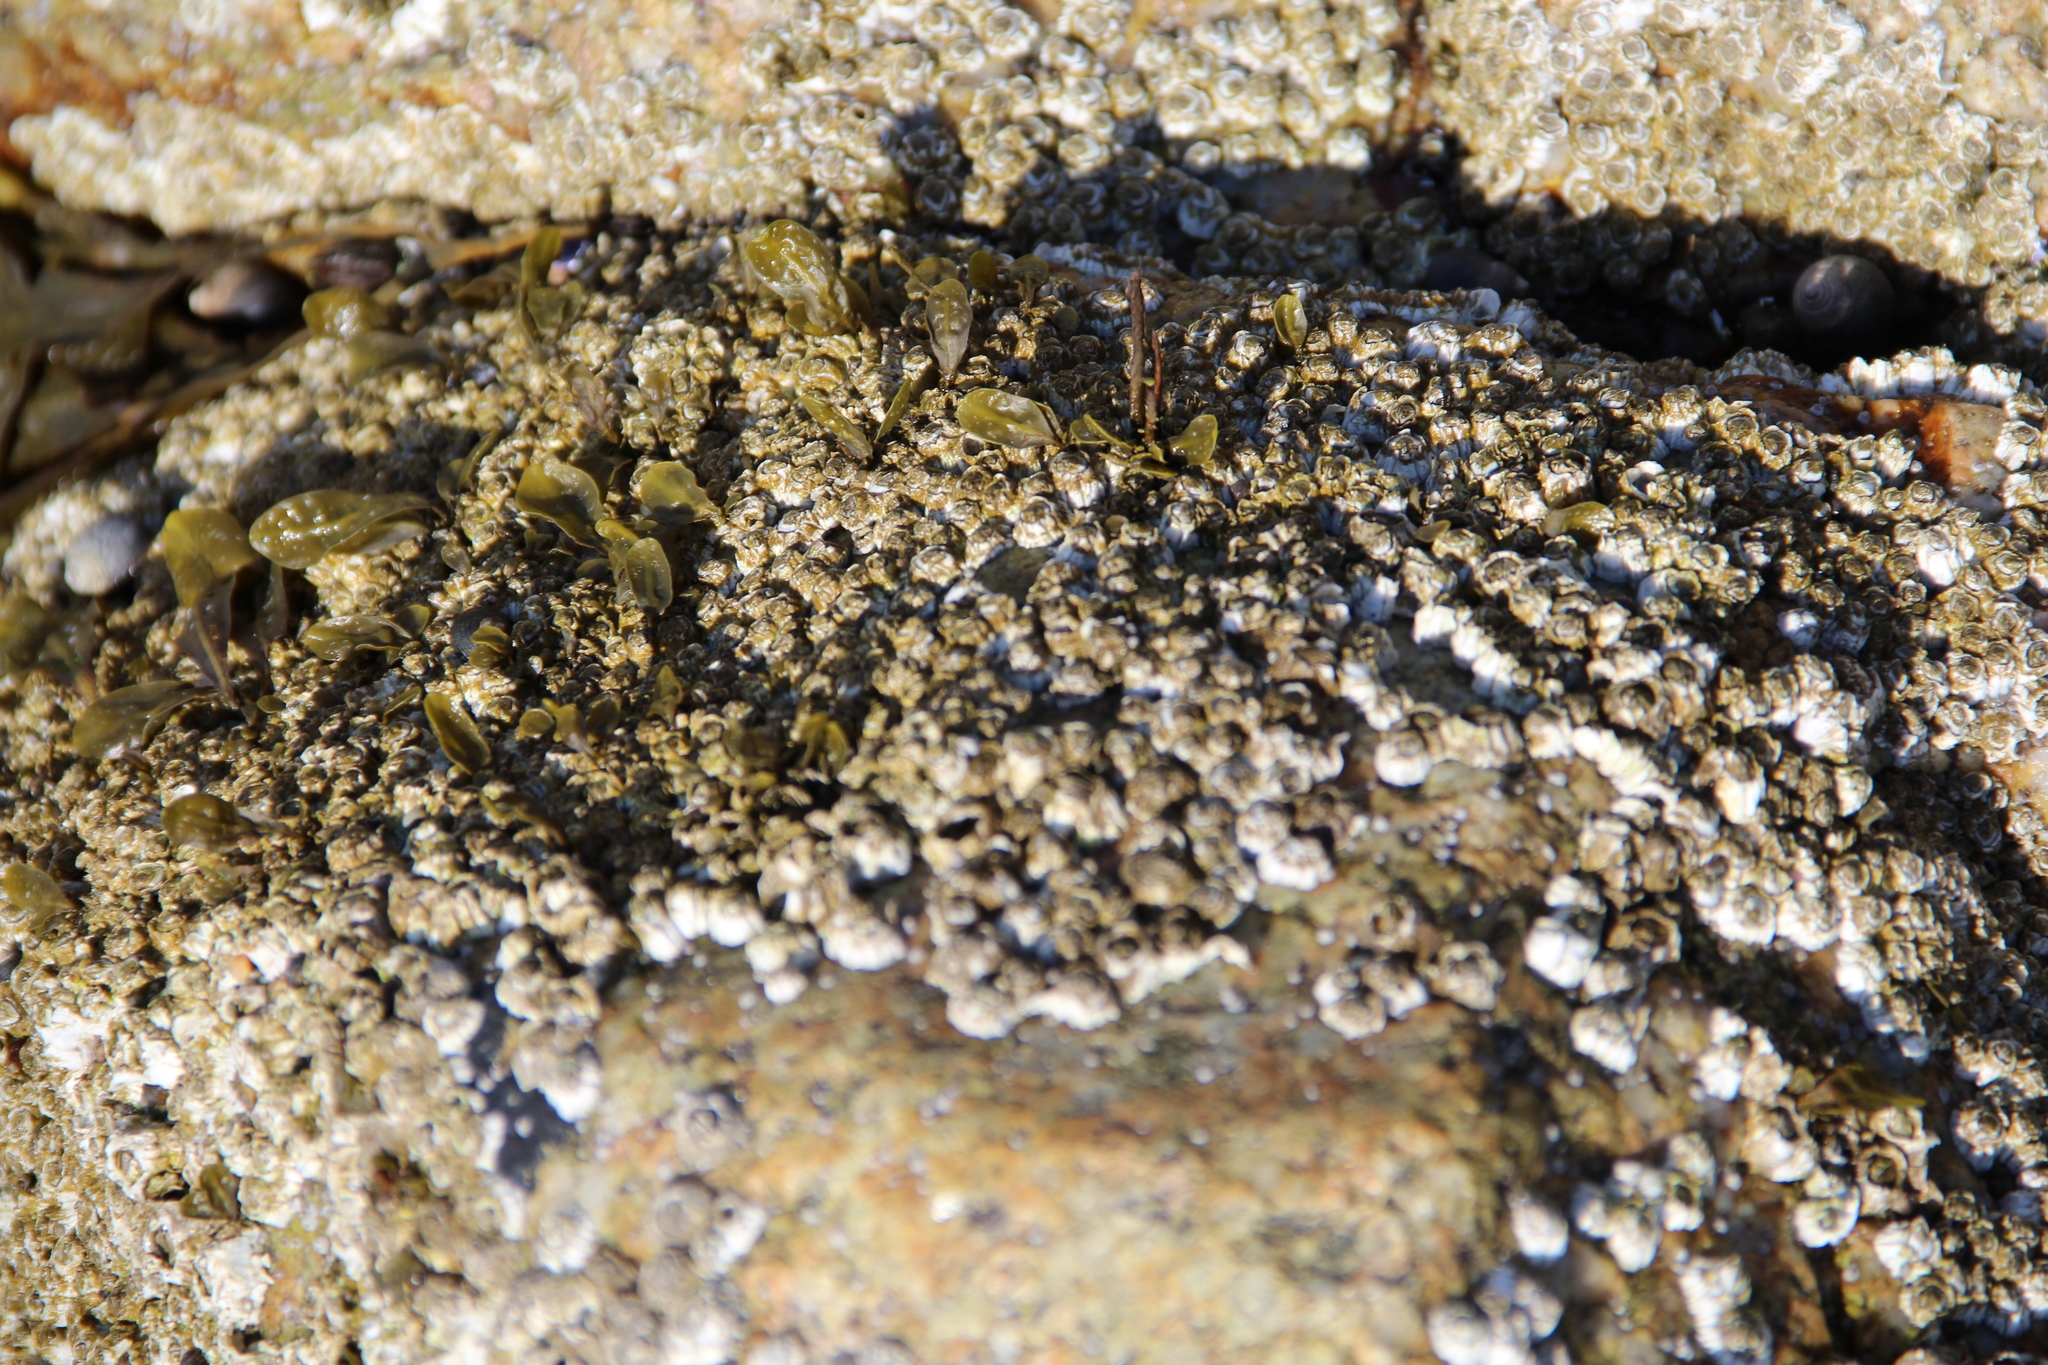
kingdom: Animalia
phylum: Arthropoda
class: Maxillopoda
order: Sessilia
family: Archaeobalanidae
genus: Semibalanus
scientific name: Semibalanus balanoides
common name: Acorn barnacle
